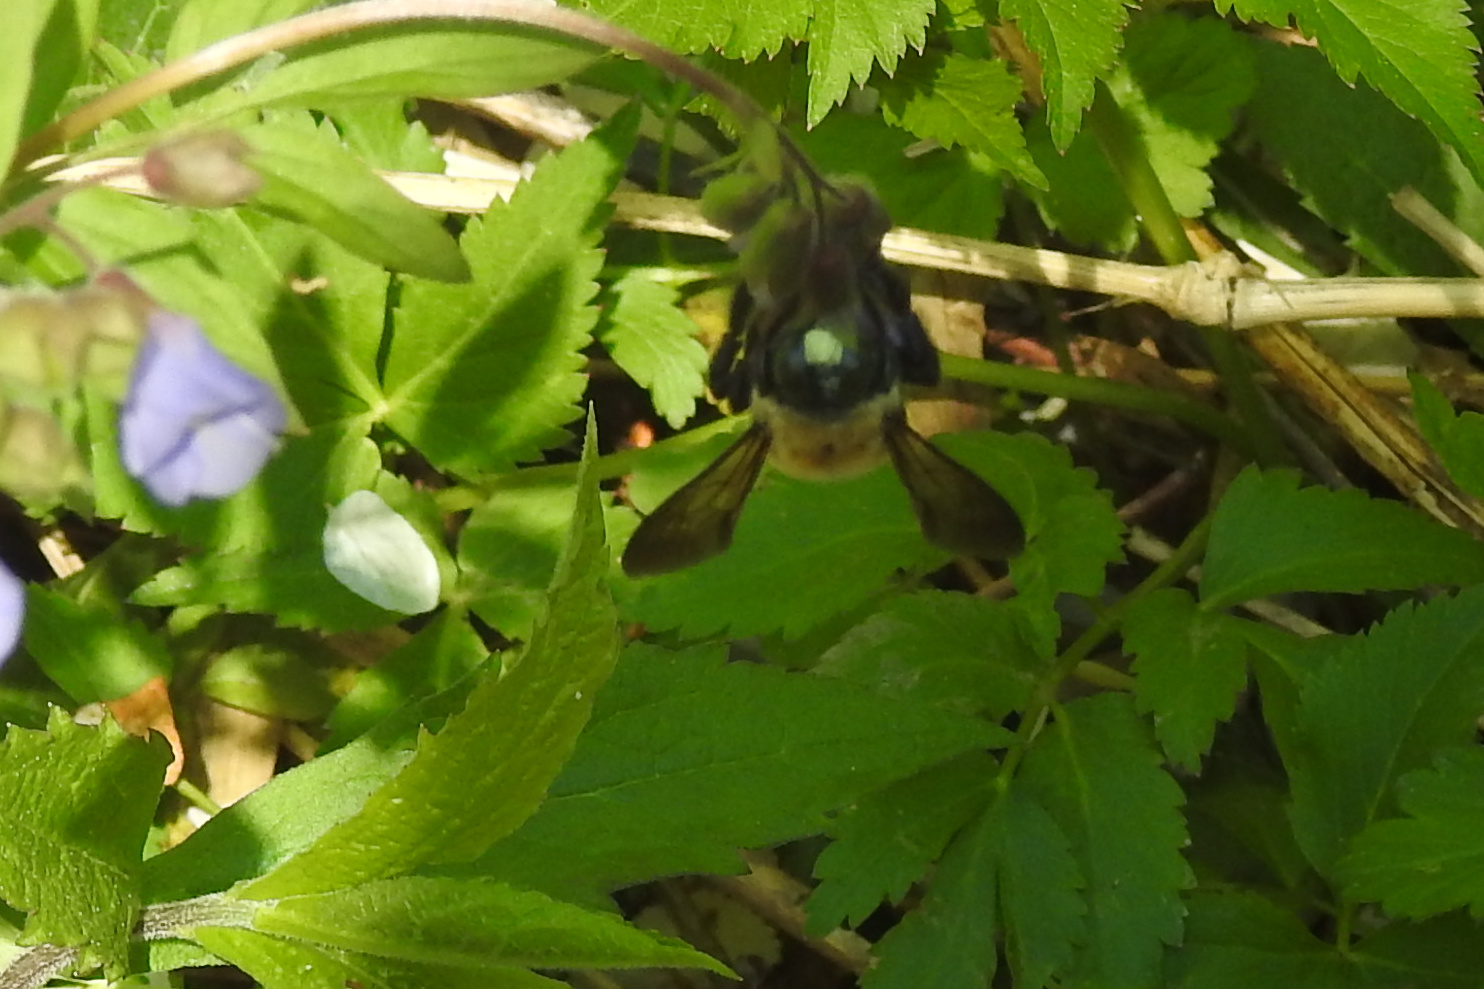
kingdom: Animalia
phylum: Arthropoda
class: Insecta
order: Hymenoptera
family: Apidae
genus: Xylocopa
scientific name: Xylocopa virginica
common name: Carpenter bee
